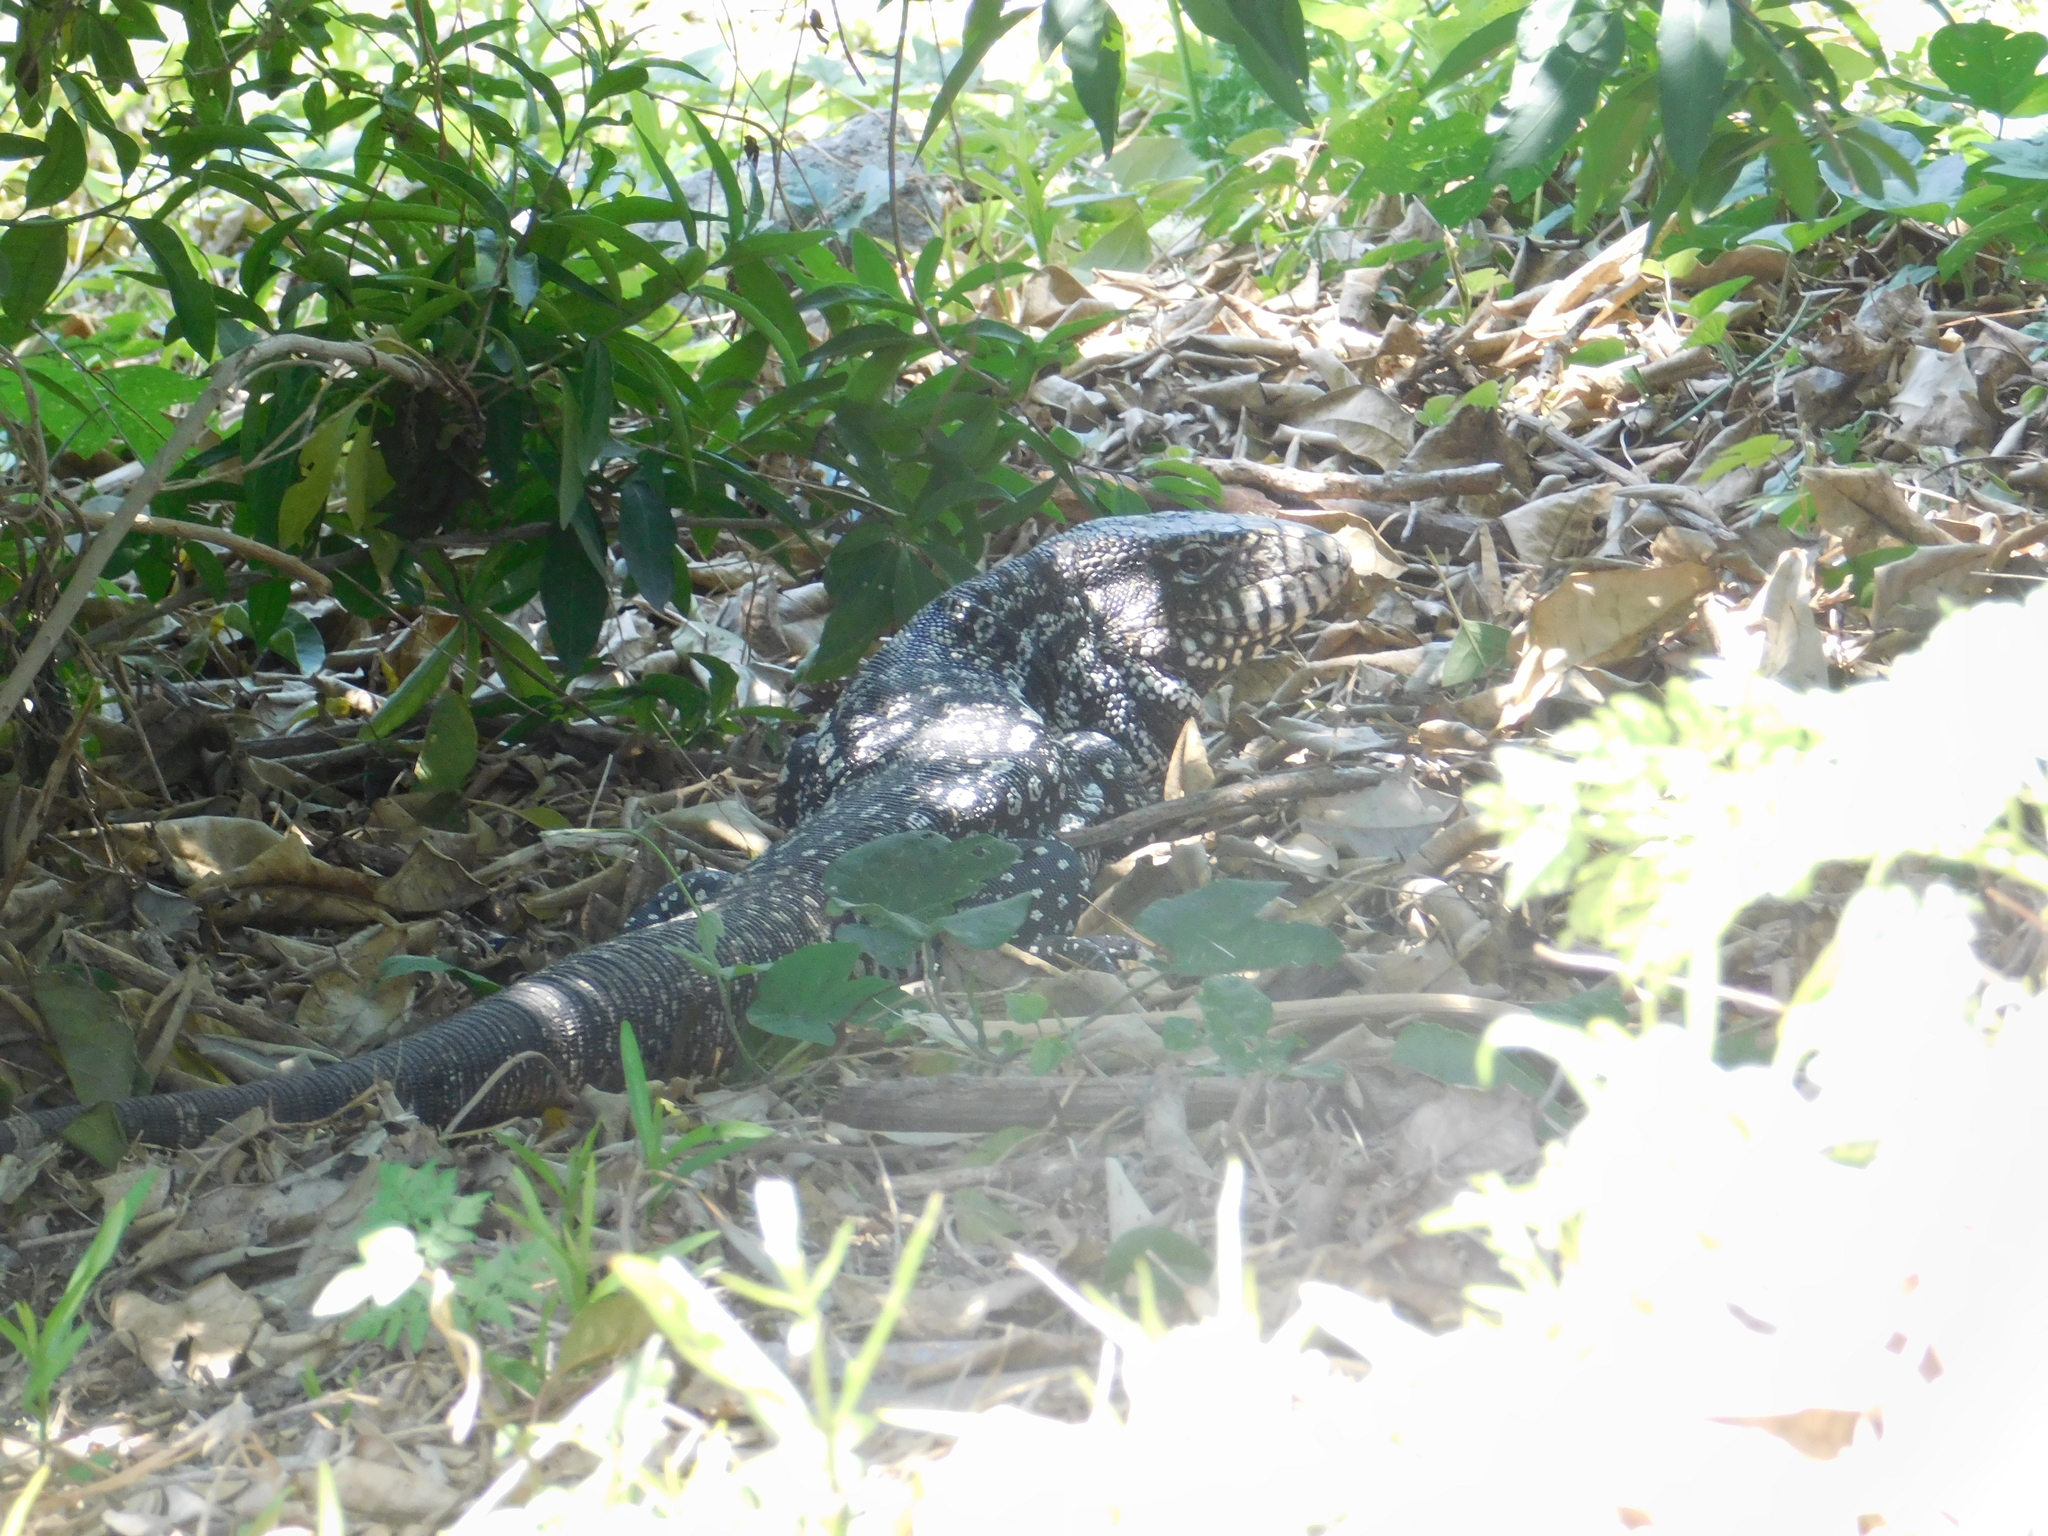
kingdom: Animalia
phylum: Chordata
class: Squamata
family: Teiidae
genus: Salvator
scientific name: Salvator merianae
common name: Argentine black and white tegu
